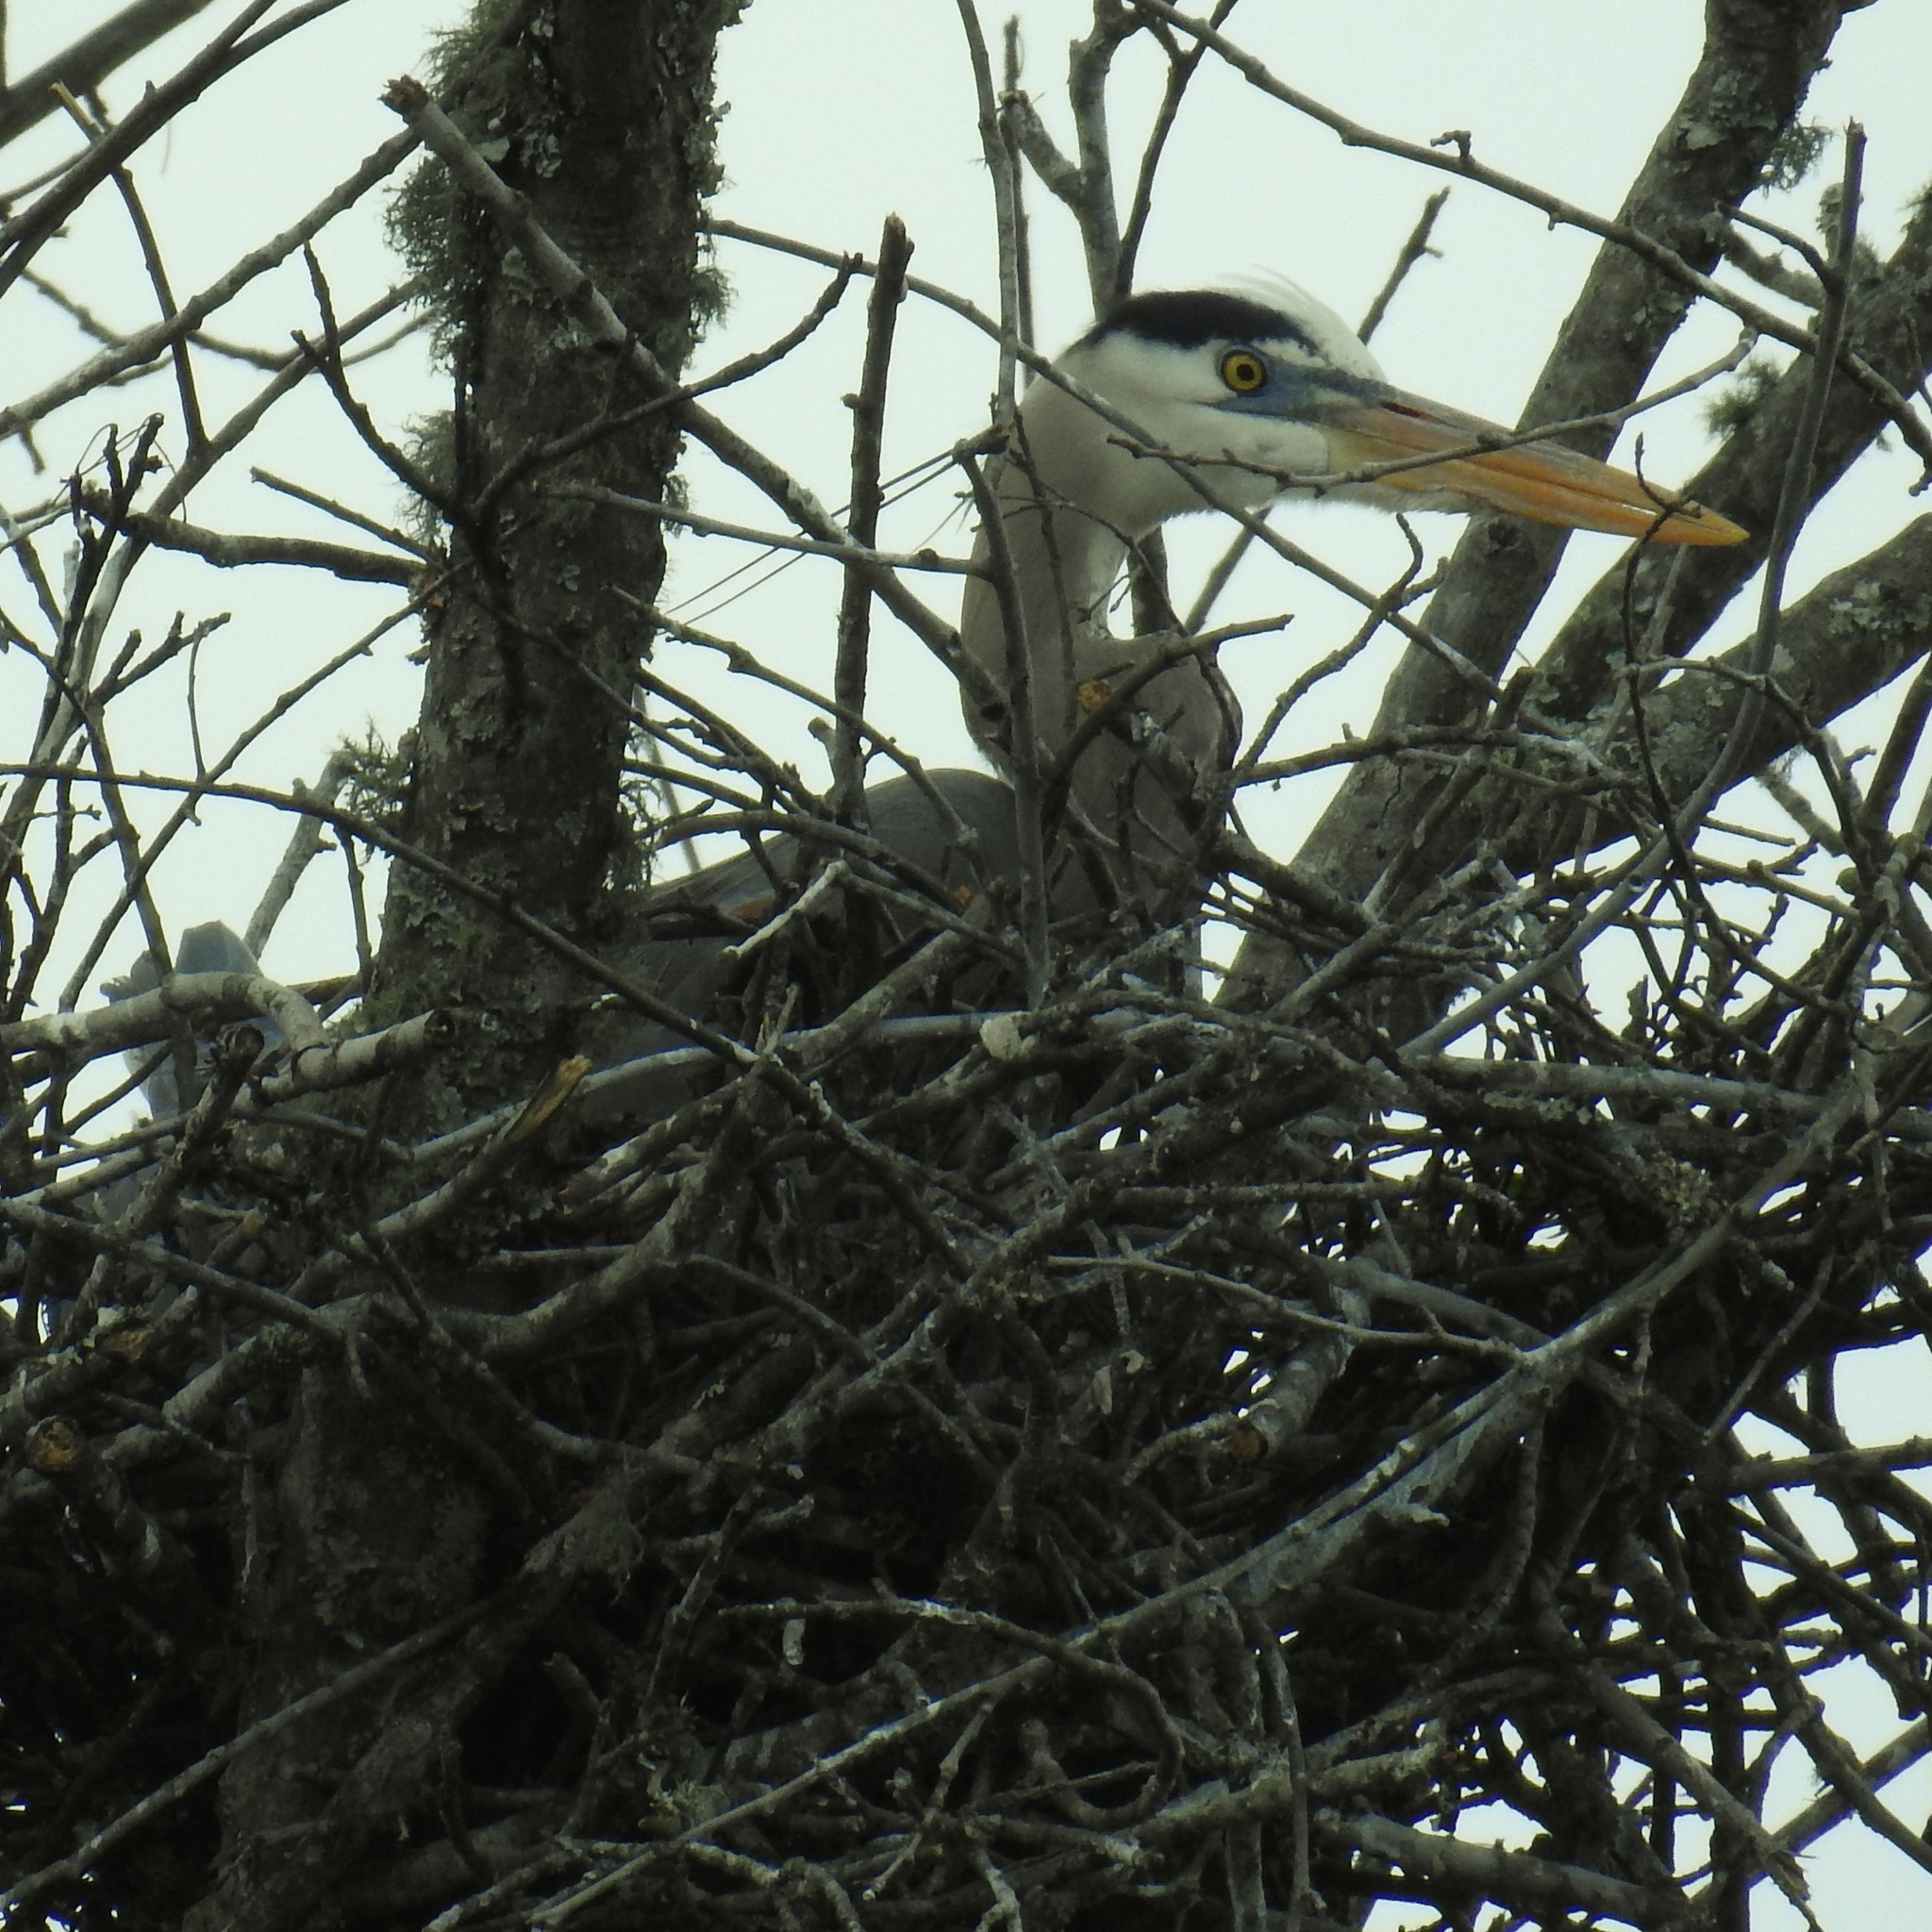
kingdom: Animalia
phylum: Chordata
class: Aves
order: Pelecaniformes
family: Ardeidae
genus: Ardea
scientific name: Ardea herodias
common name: Great blue heron
